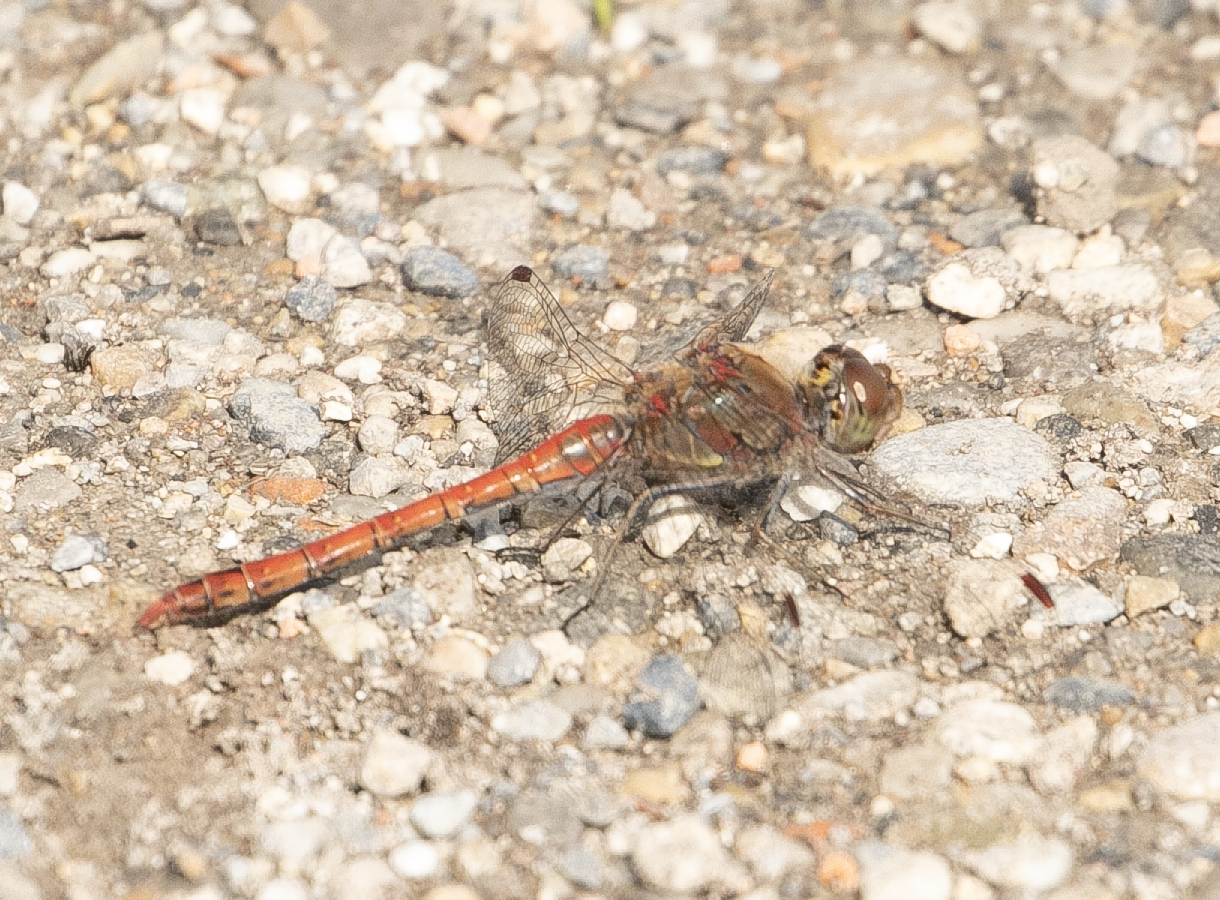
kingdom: Animalia
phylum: Arthropoda
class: Insecta
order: Odonata
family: Libellulidae
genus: Sympetrum
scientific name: Sympetrum striolatum
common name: Common darter
